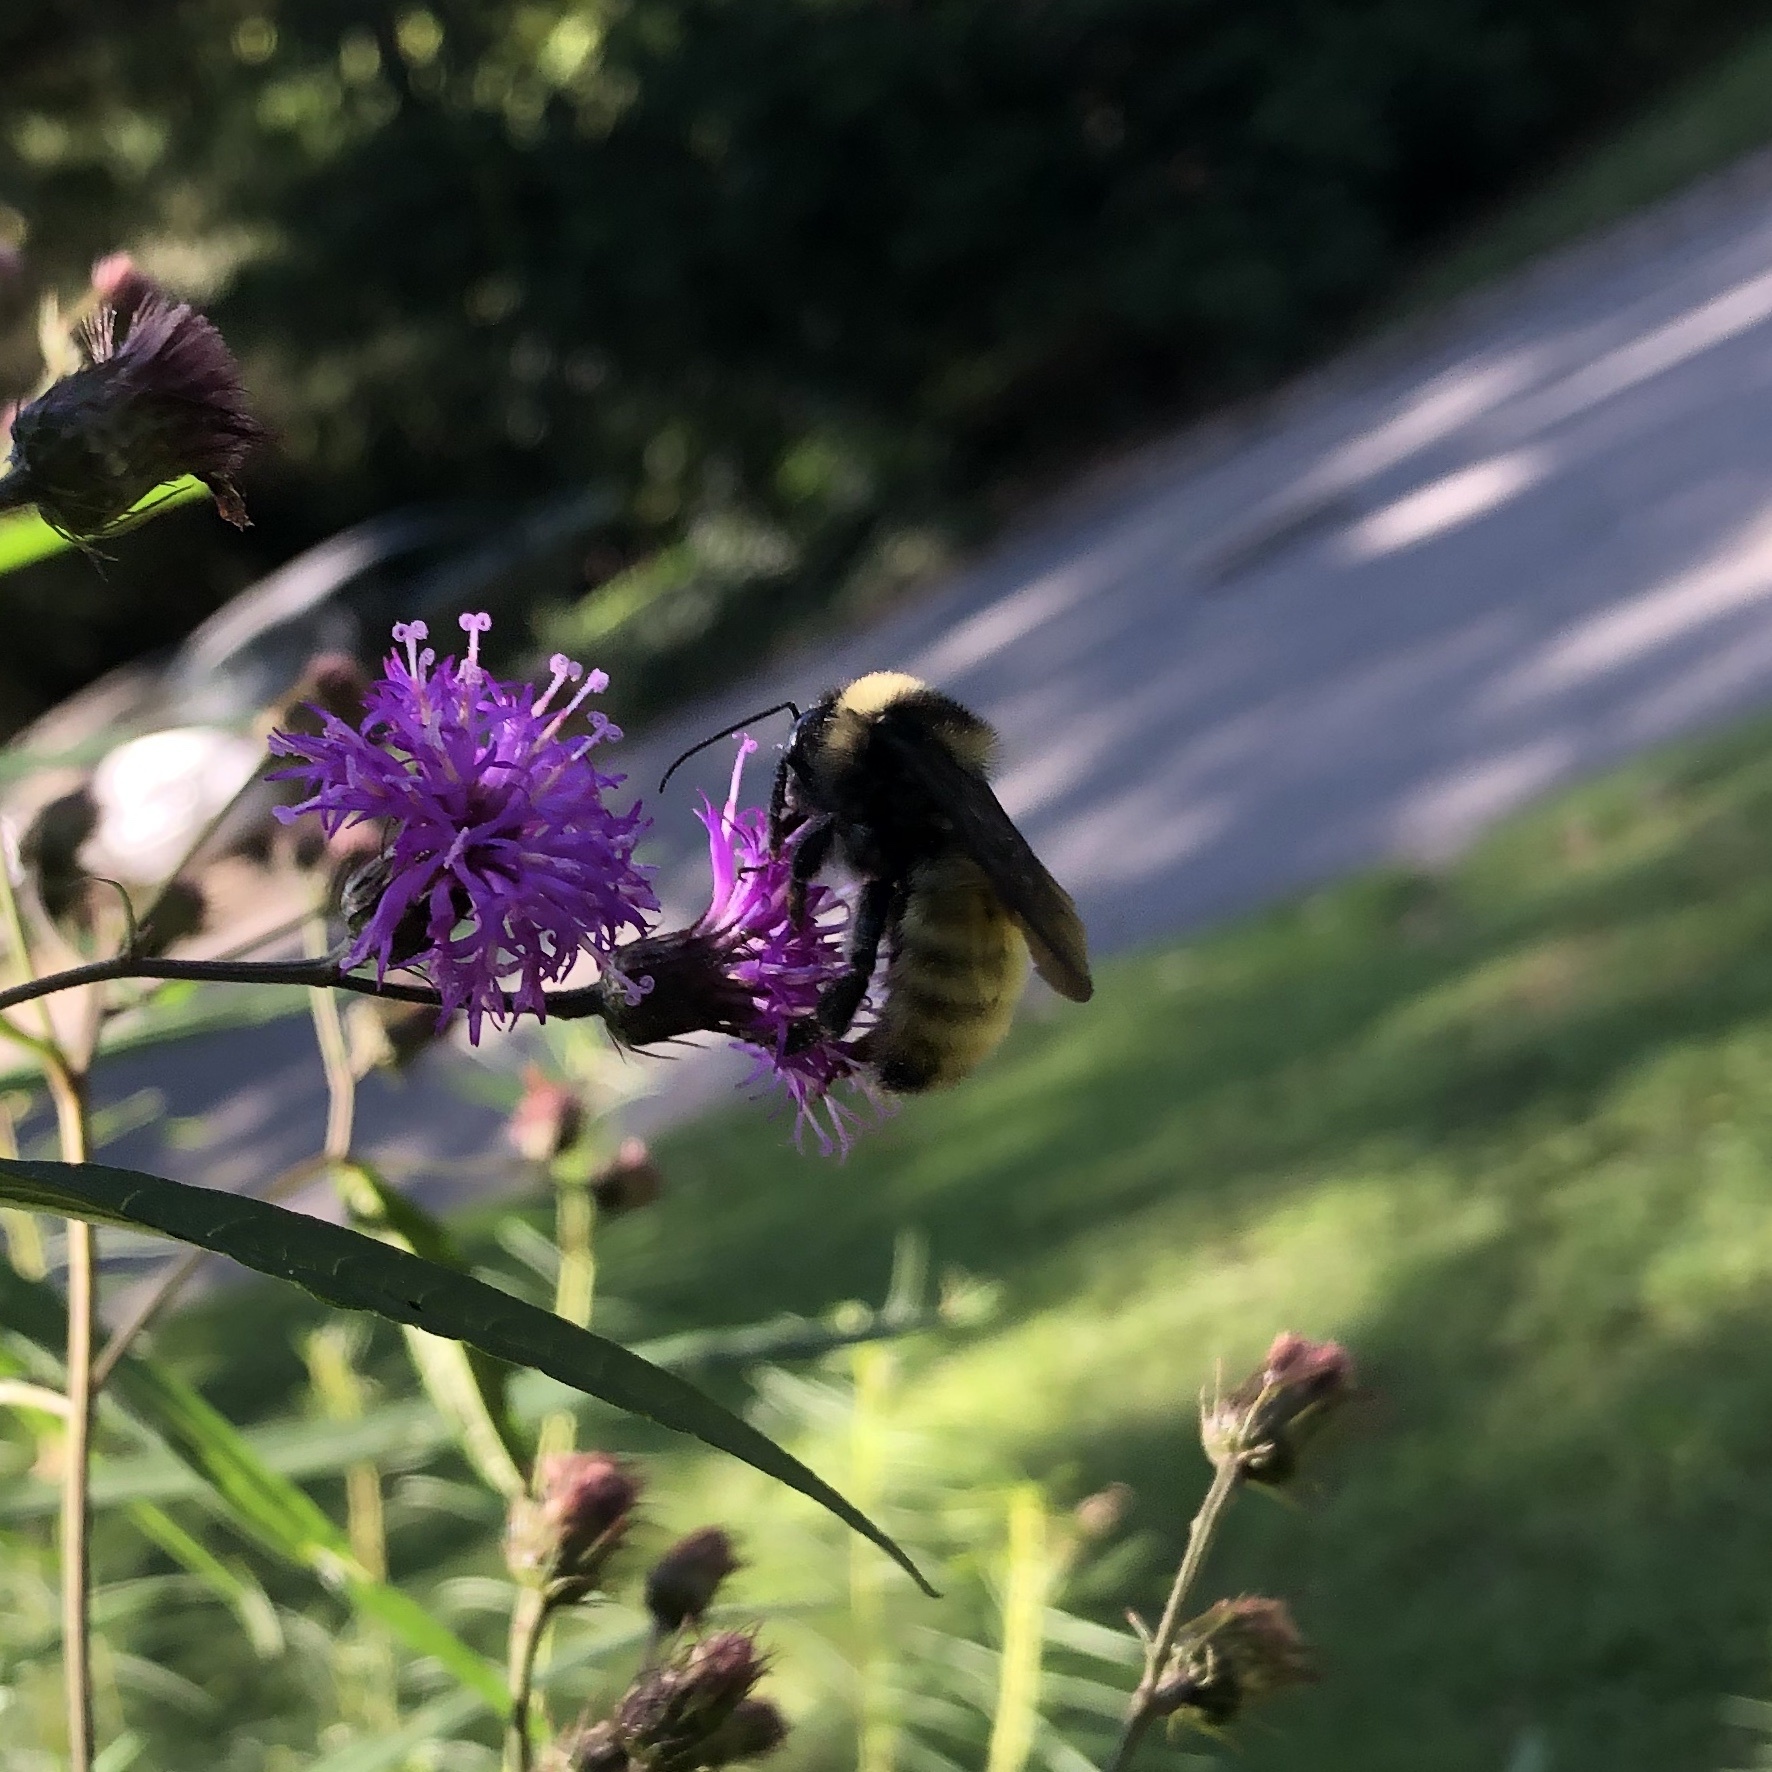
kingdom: Animalia
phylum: Arthropoda
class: Insecta
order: Hymenoptera
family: Apidae
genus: Bombus
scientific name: Bombus pensylvanicus
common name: Bumble bee
